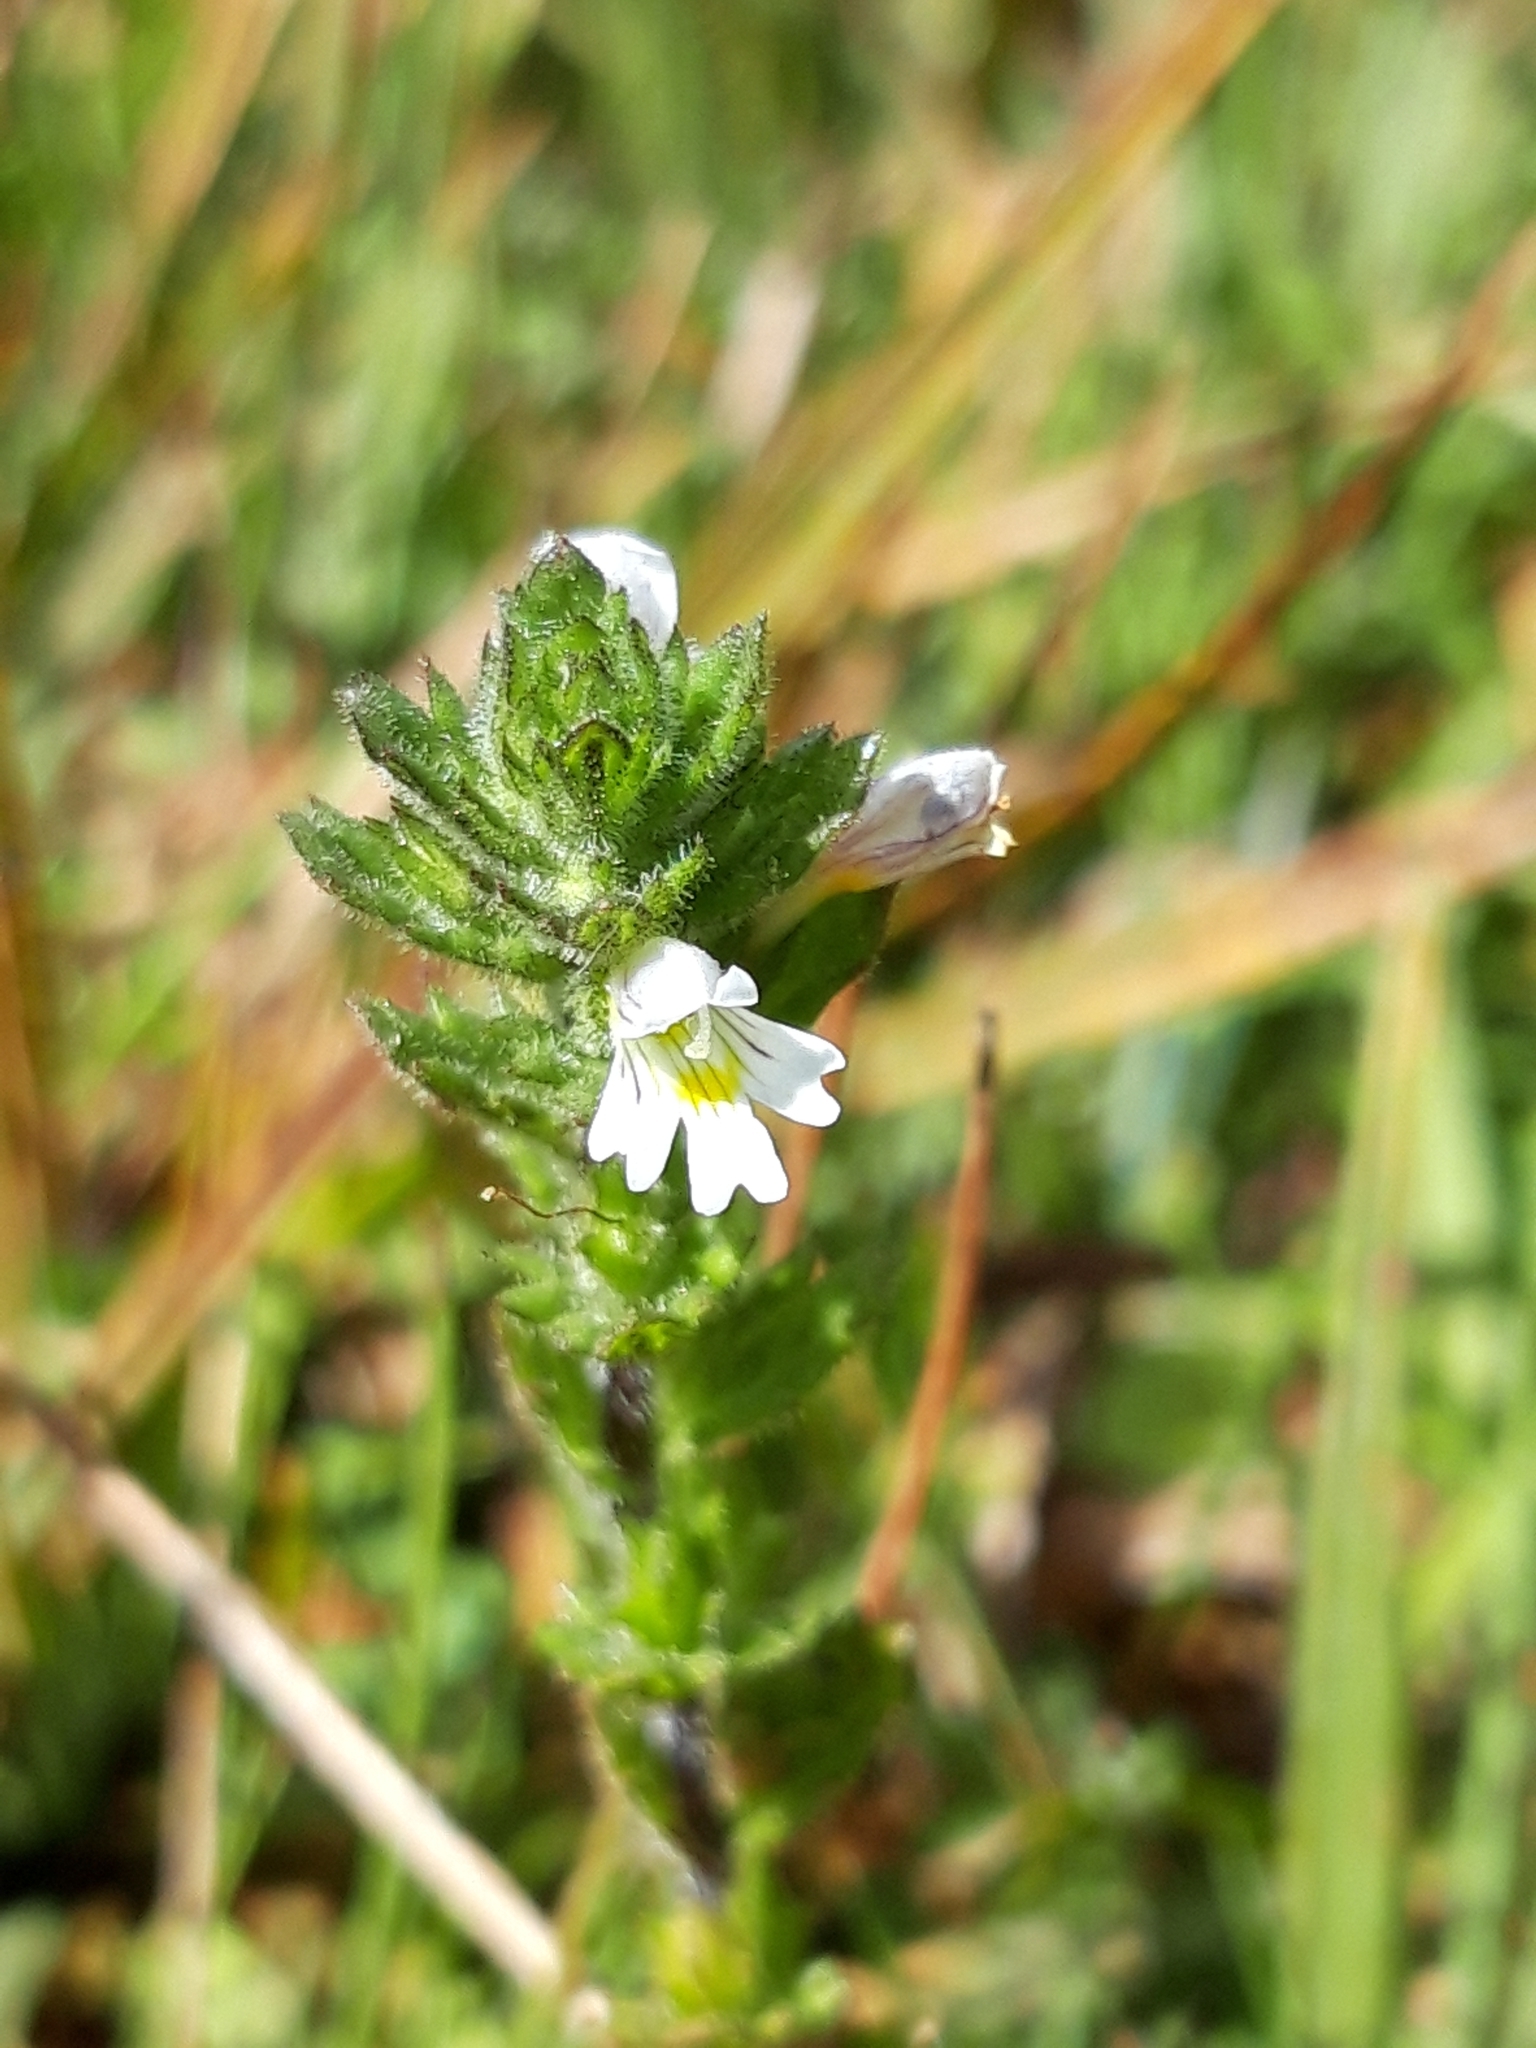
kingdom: Plantae
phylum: Tracheophyta
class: Magnoliopsida
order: Lamiales
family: Orobanchaceae
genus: Euphrasia
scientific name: Euphrasia hirtella
